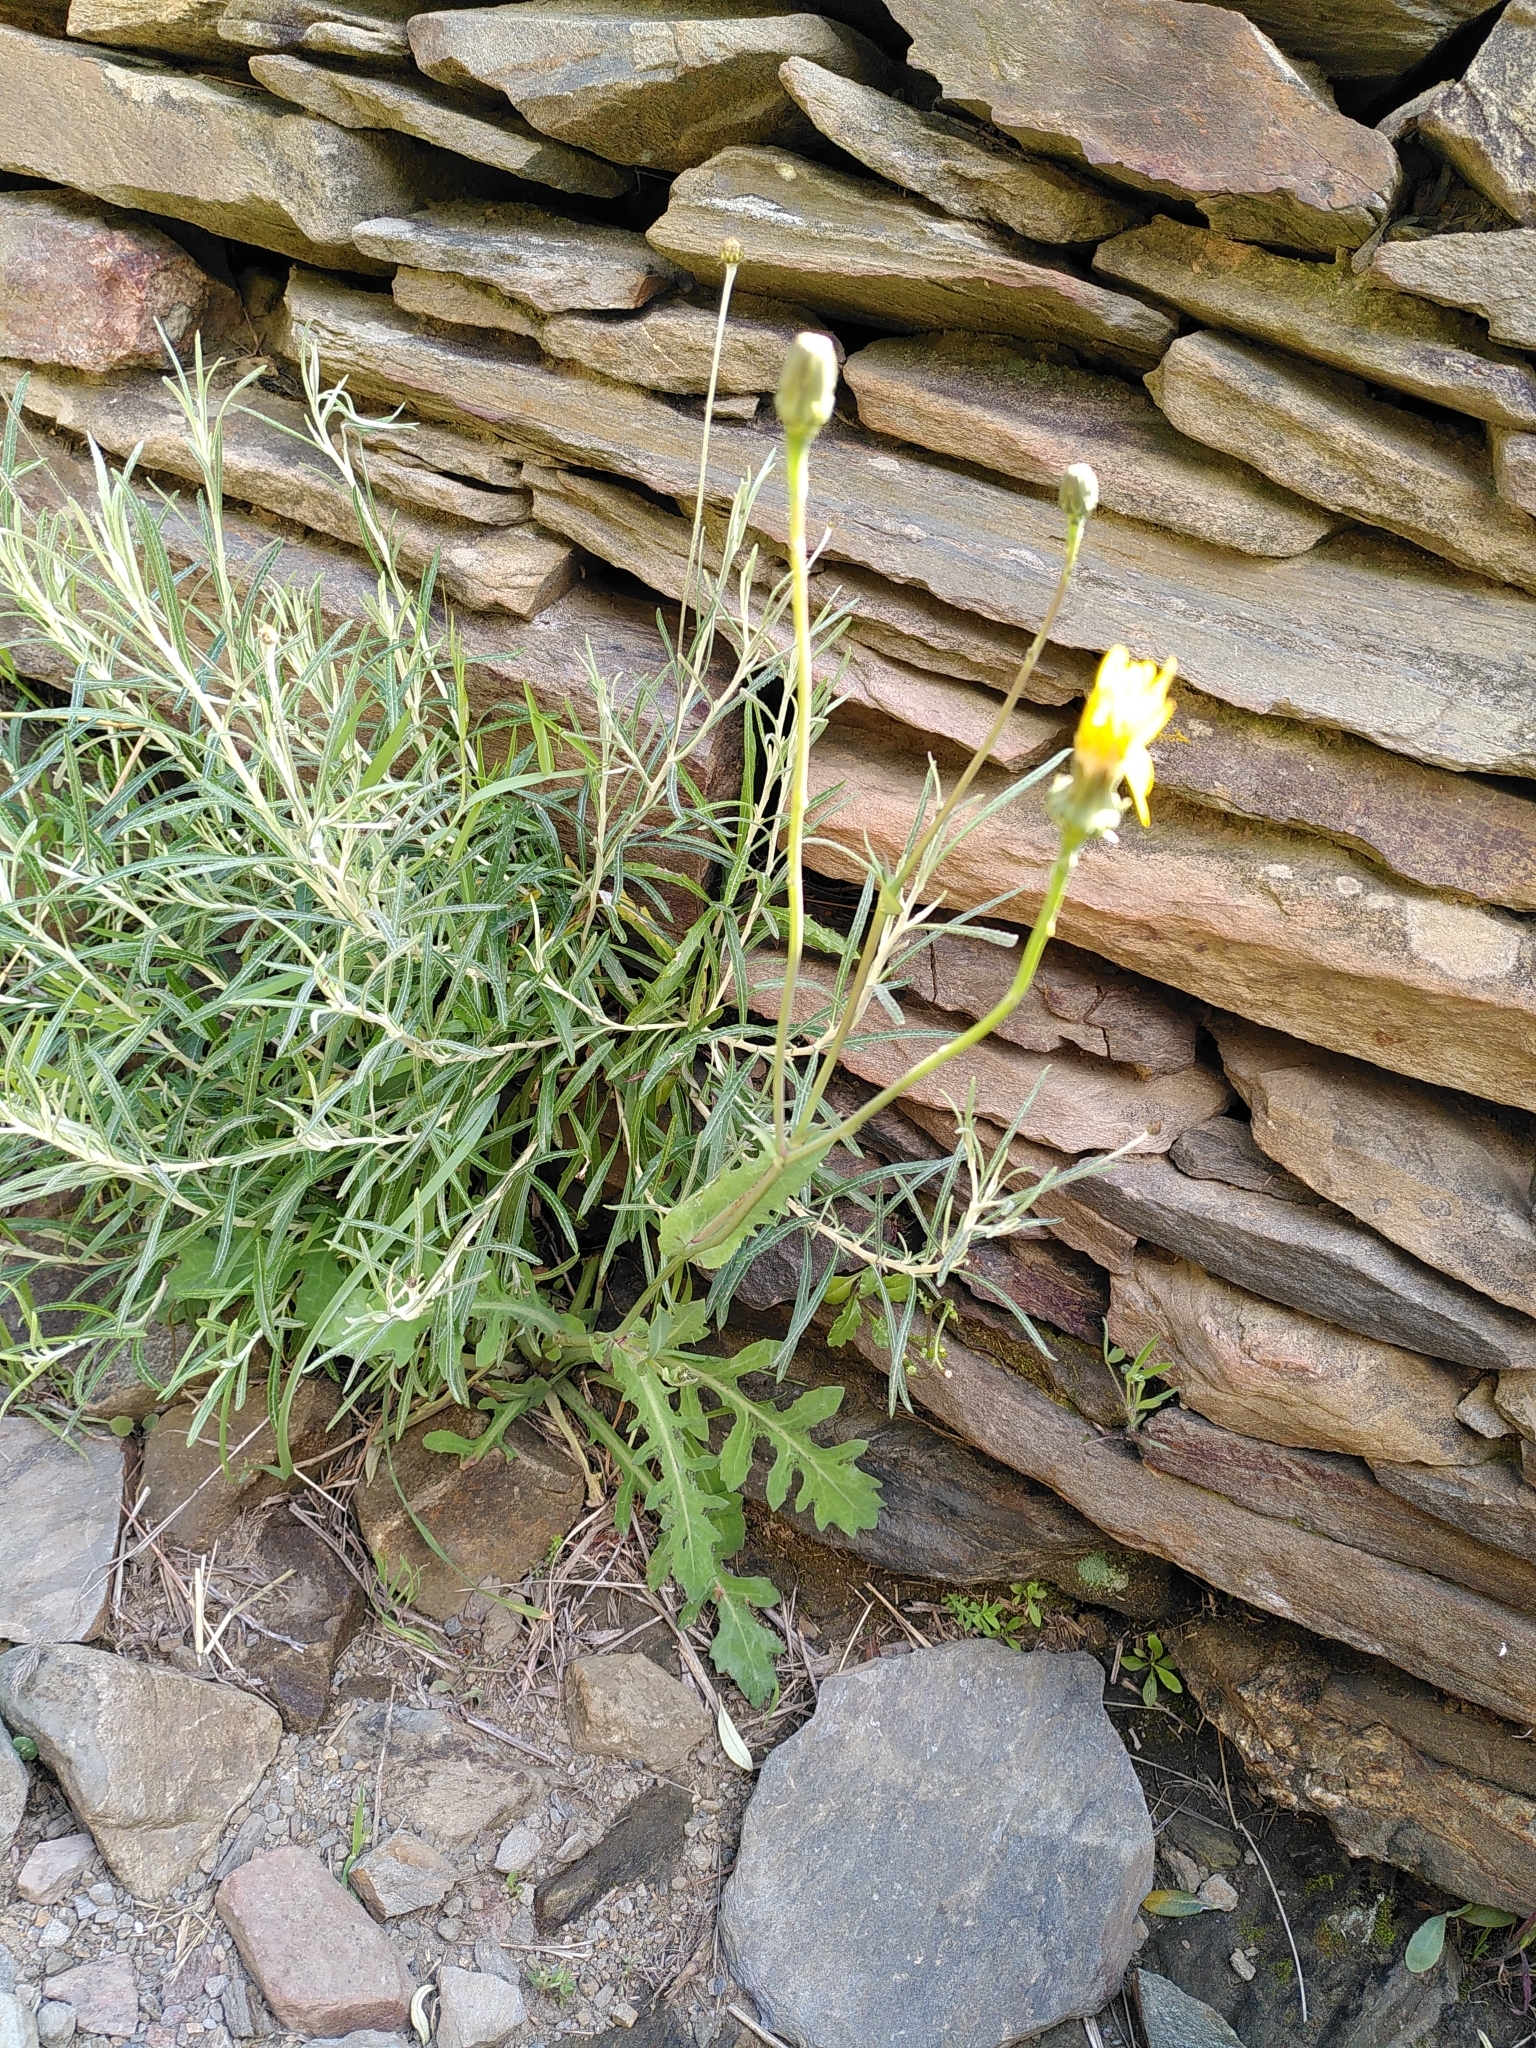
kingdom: Plantae
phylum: Tracheophyta
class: Magnoliopsida
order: Asterales
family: Asteraceae
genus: Reichardia
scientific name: Reichardia picroides
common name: Common brighteyes
